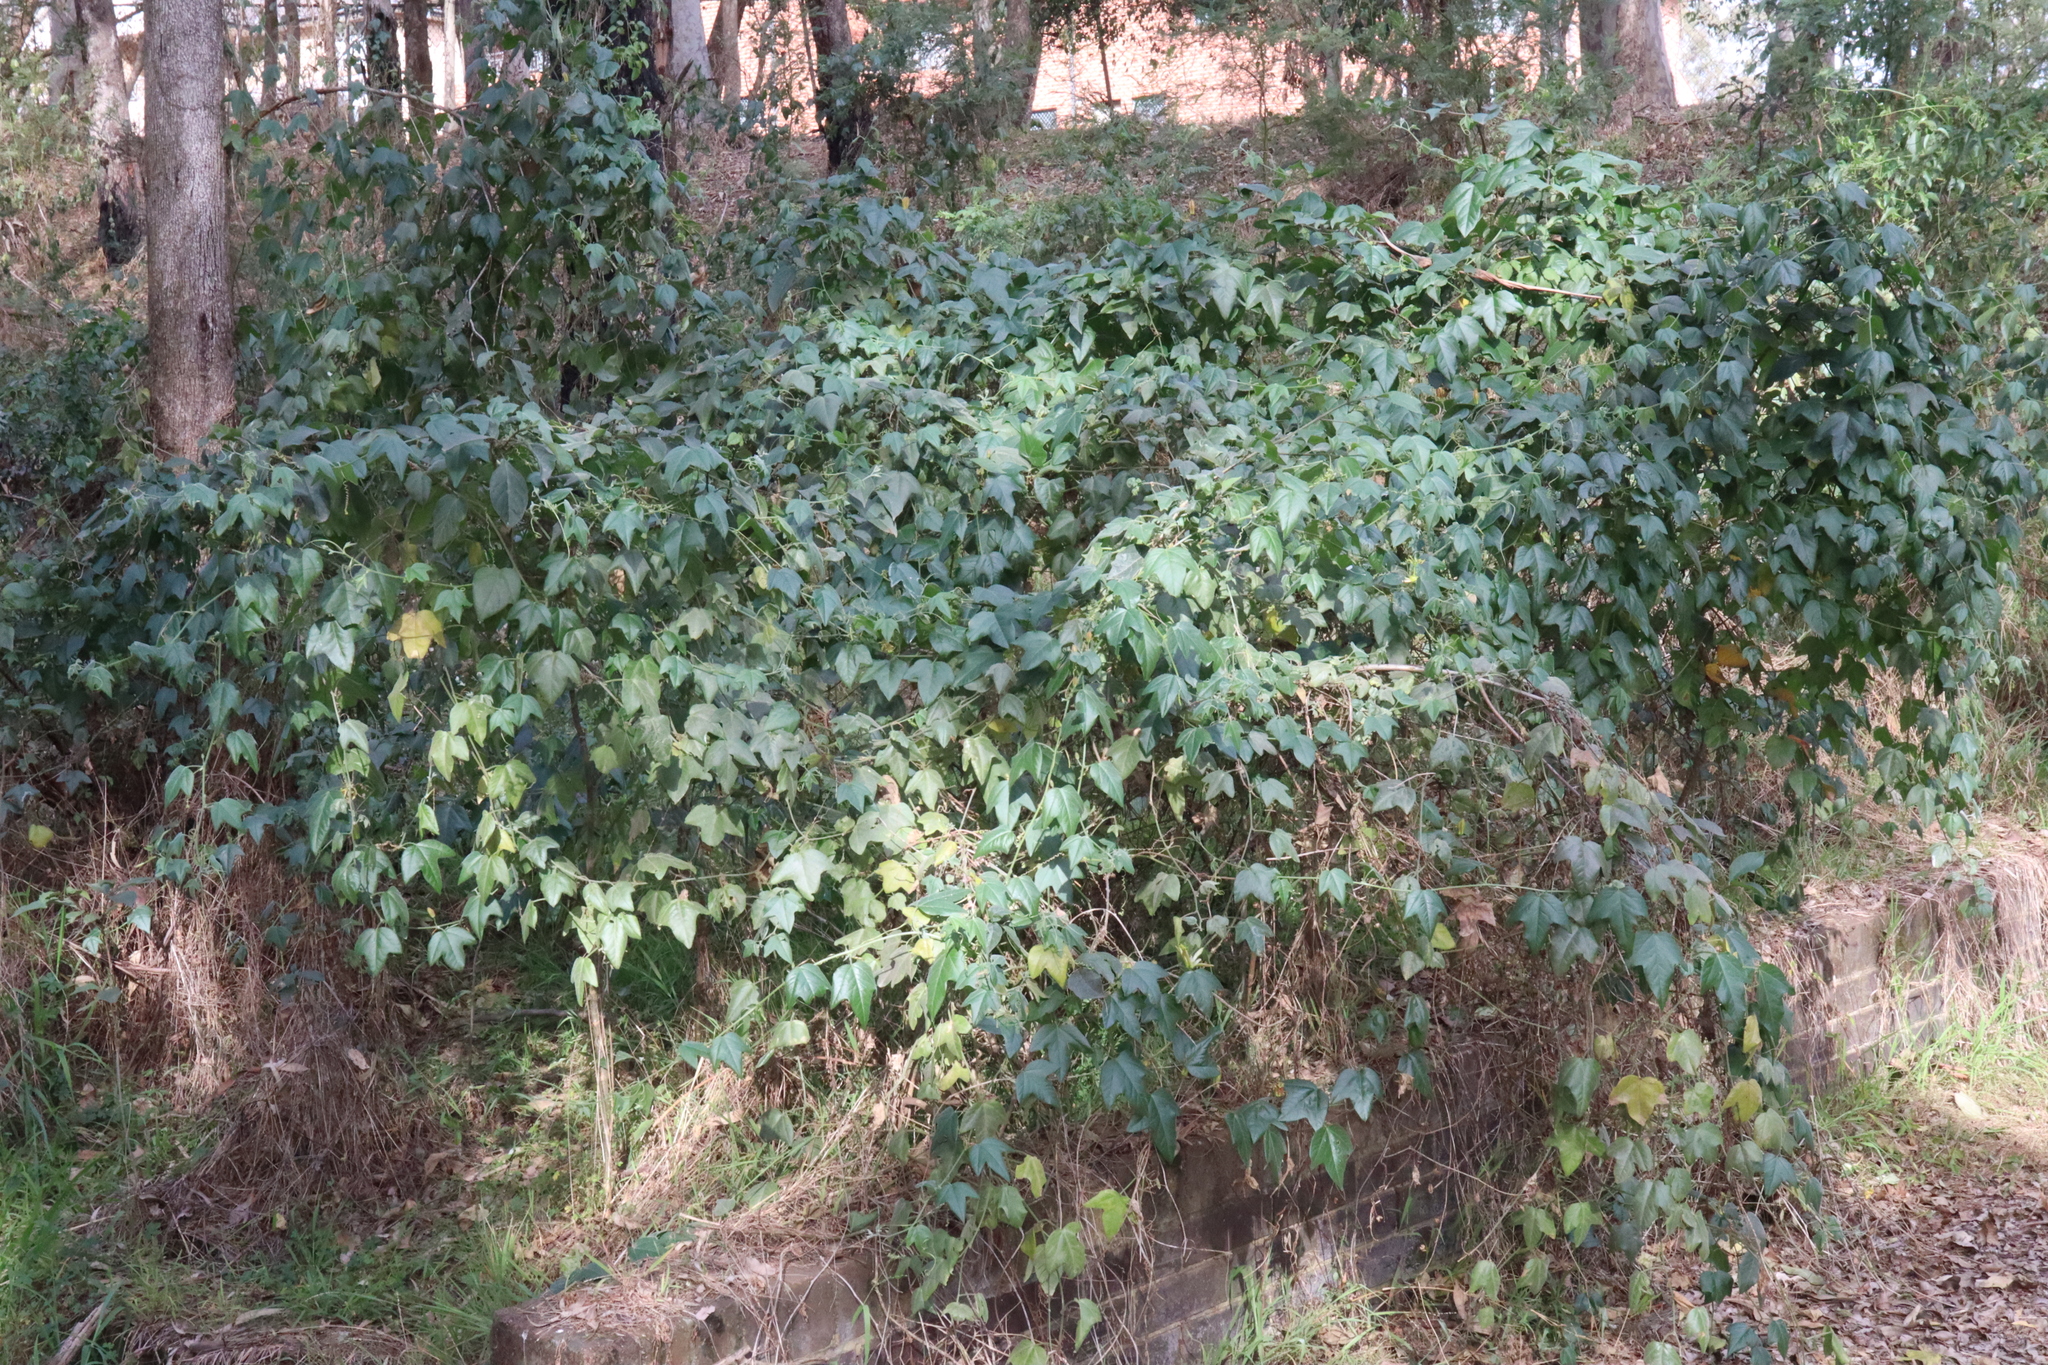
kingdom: Plantae
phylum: Tracheophyta
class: Magnoliopsida
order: Malpighiales
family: Passifloraceae
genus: Passiflora
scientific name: Passiflora herbertiana
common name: Yellow passionflower
